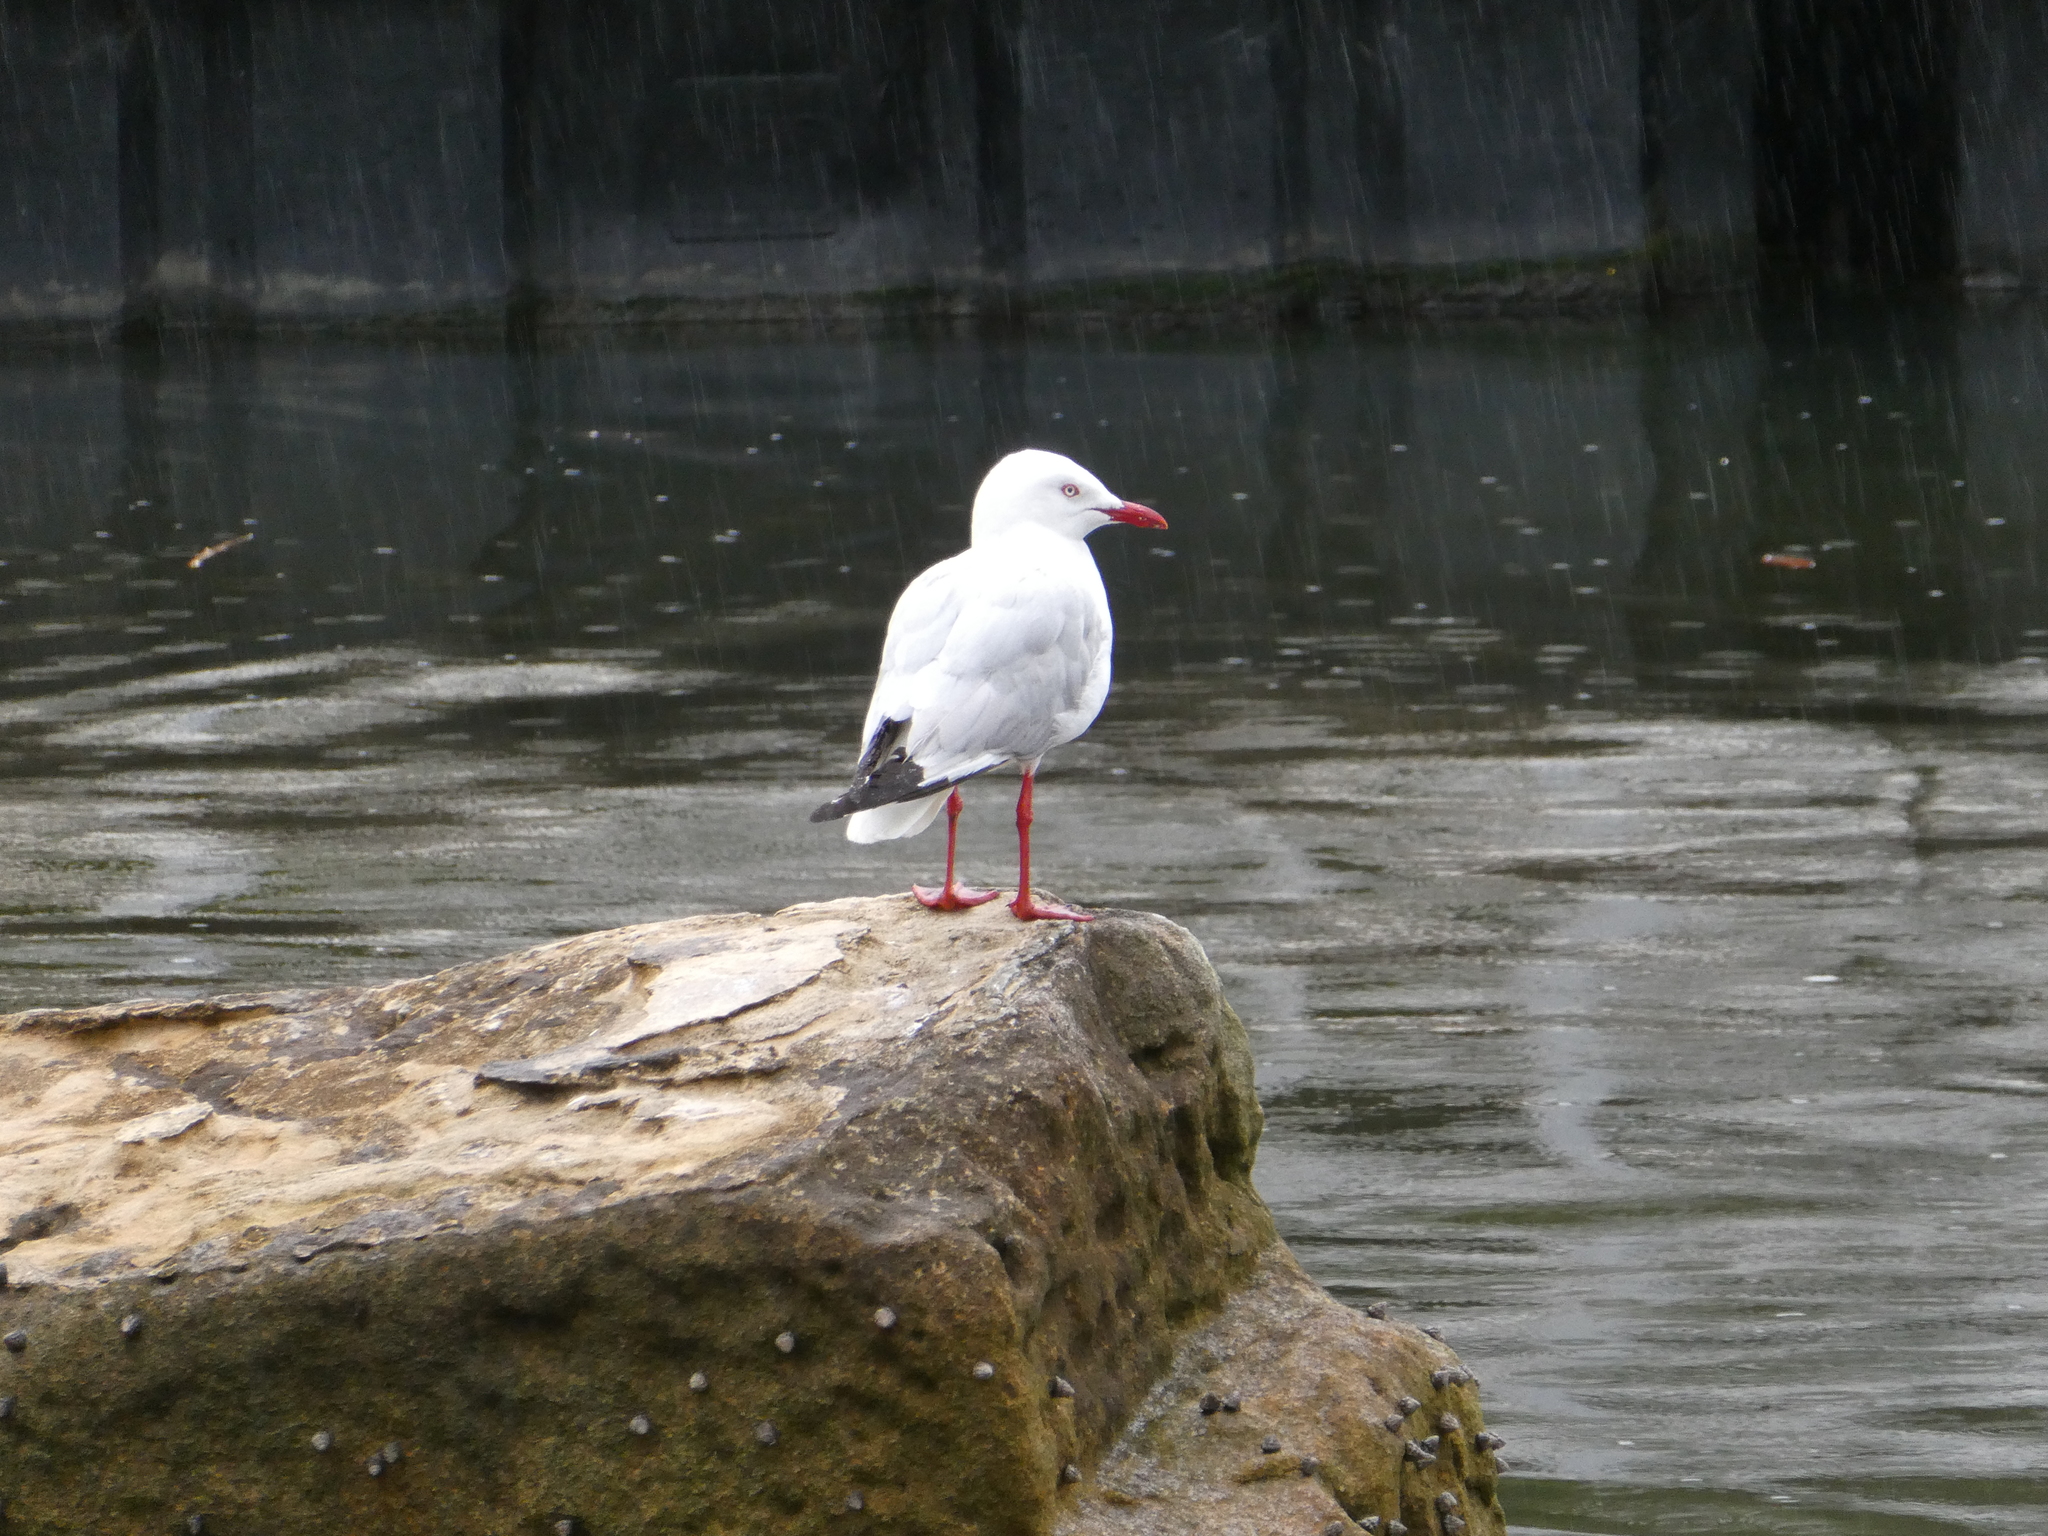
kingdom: Animalia
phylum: Chordata
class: Aves
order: Charadriiformes
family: Laridae
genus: Chroicocephalus
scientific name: Chroicocephalus novaehollandiae
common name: Silver gull
